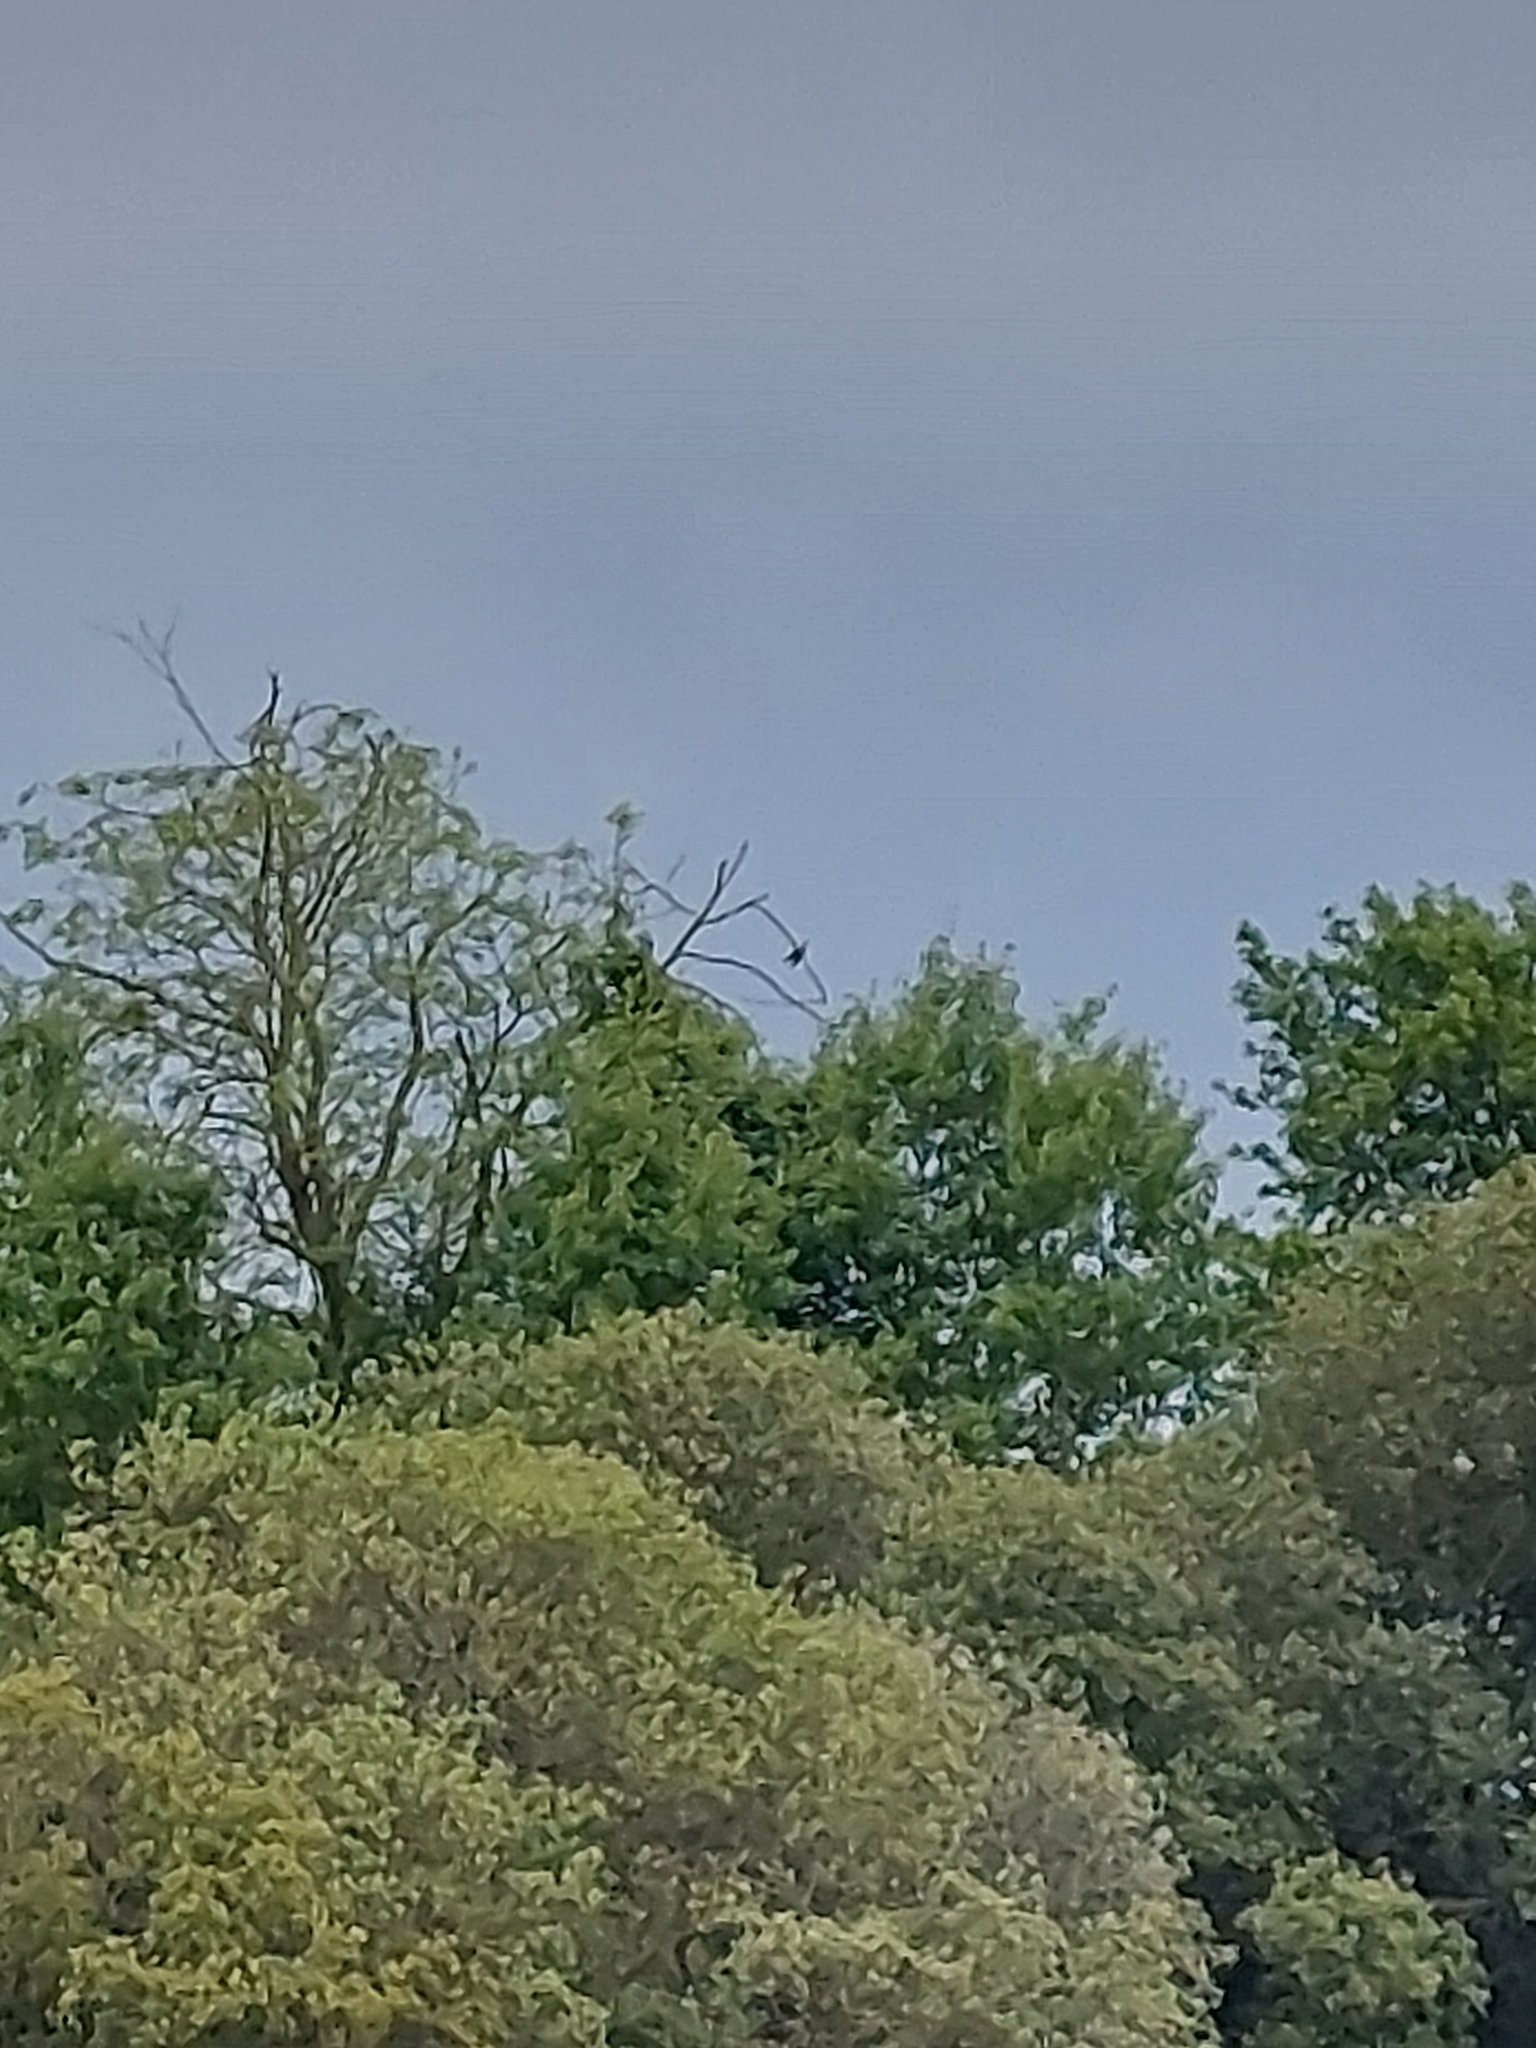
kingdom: Animalia
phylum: Chordata
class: Aves
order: Cuculiformes
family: Cuculidae
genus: Cuculus
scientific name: Cuculus canorus
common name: Common cuckoo
